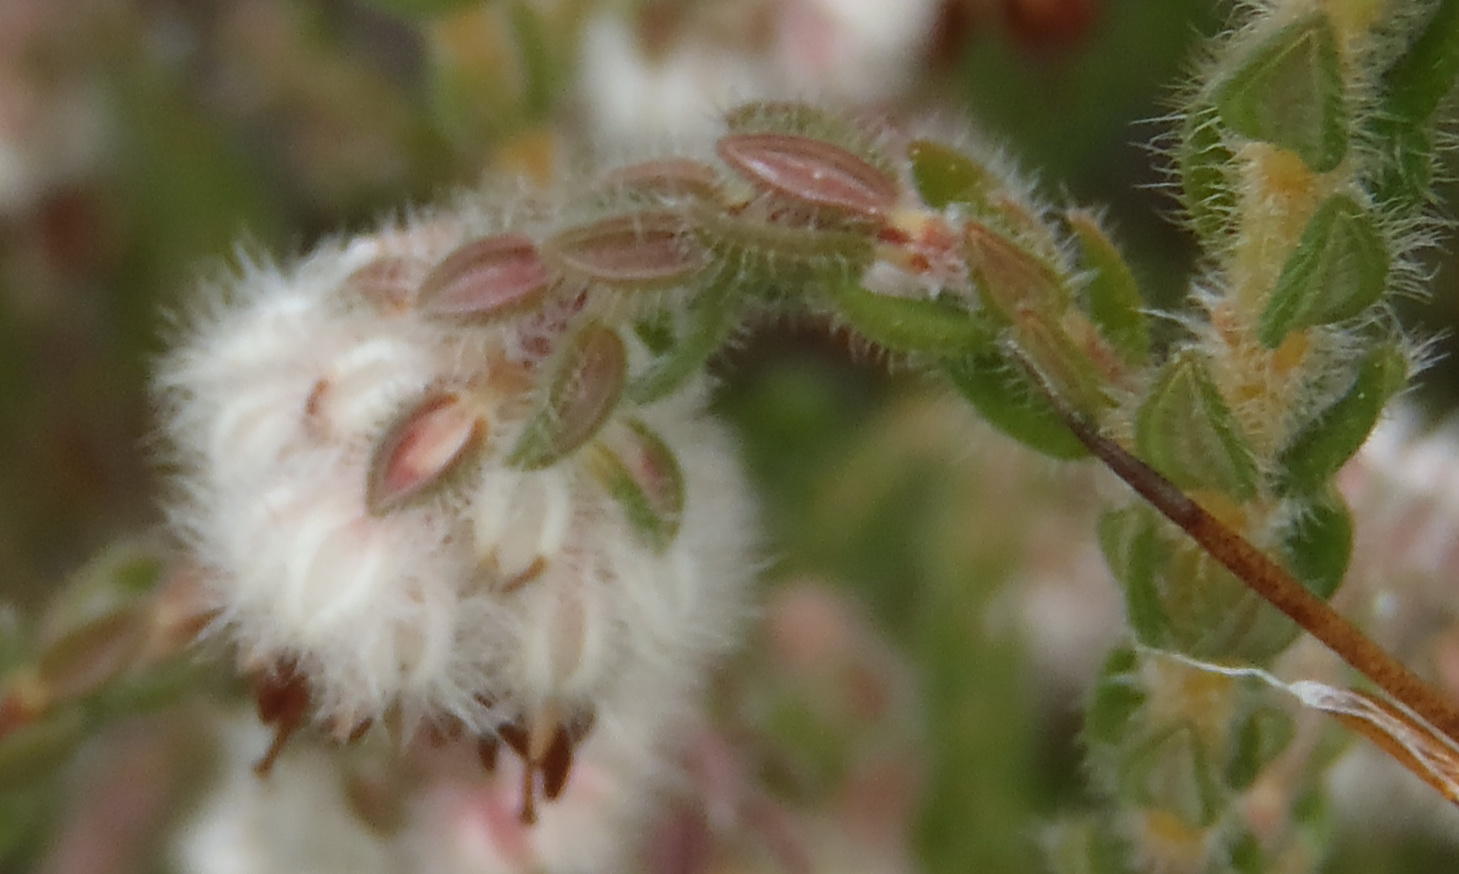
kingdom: Plantae
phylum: Tracheophyta
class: Magnoliopsida
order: Ericales
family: Ericaceae
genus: Erica
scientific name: Erica flaccida
